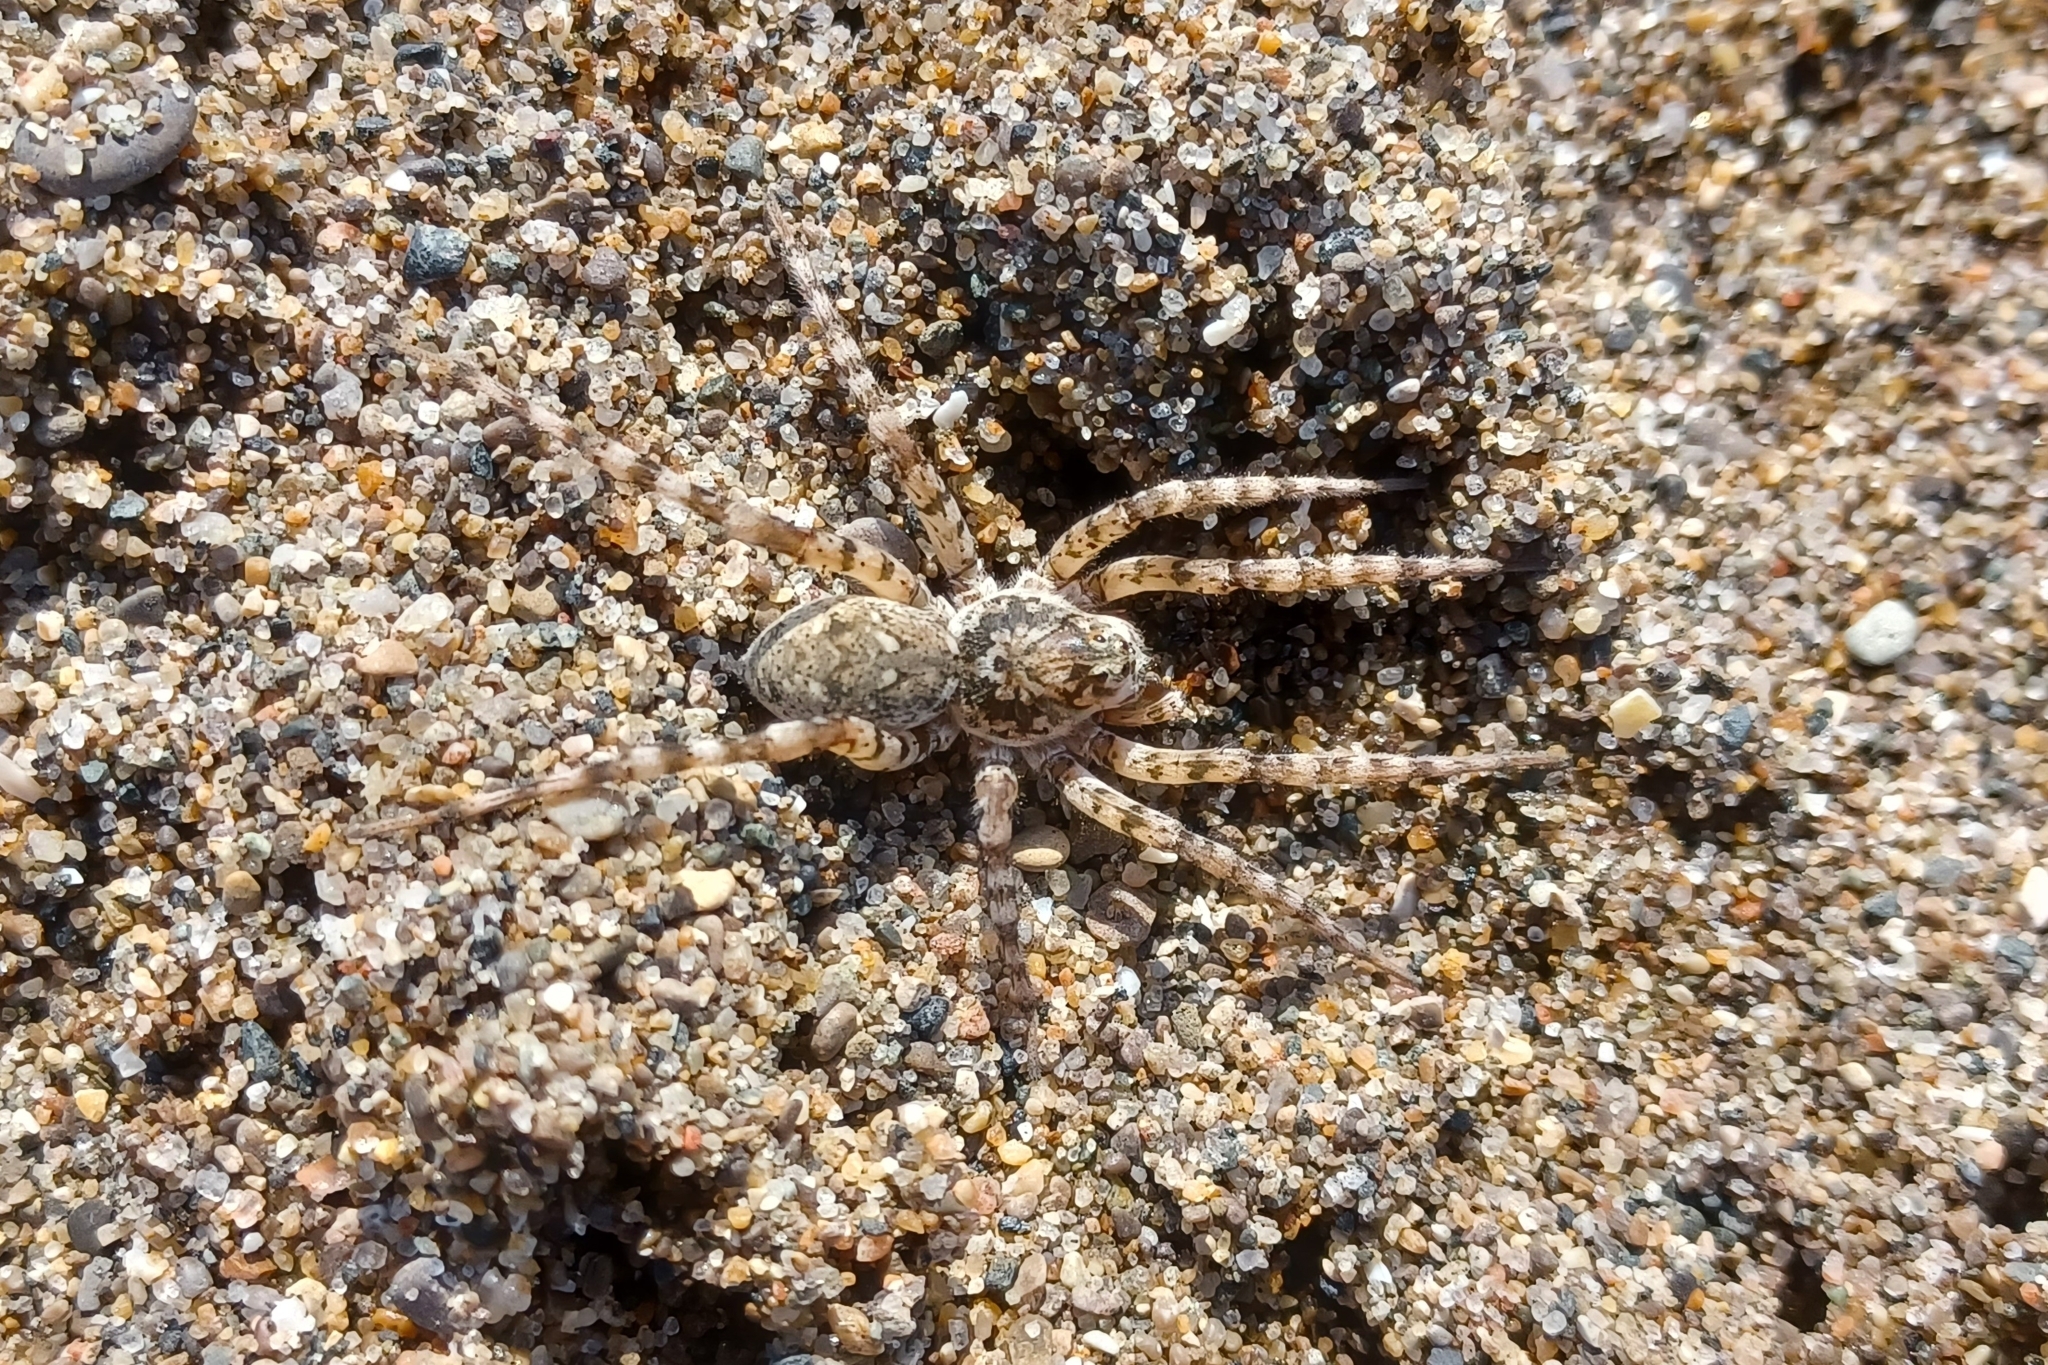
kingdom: Animalia
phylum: Arthropoda
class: Arachnida
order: Araneae
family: Lycosidae
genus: Arctosa
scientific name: Arctosa littoralis
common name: Wolf spiders
